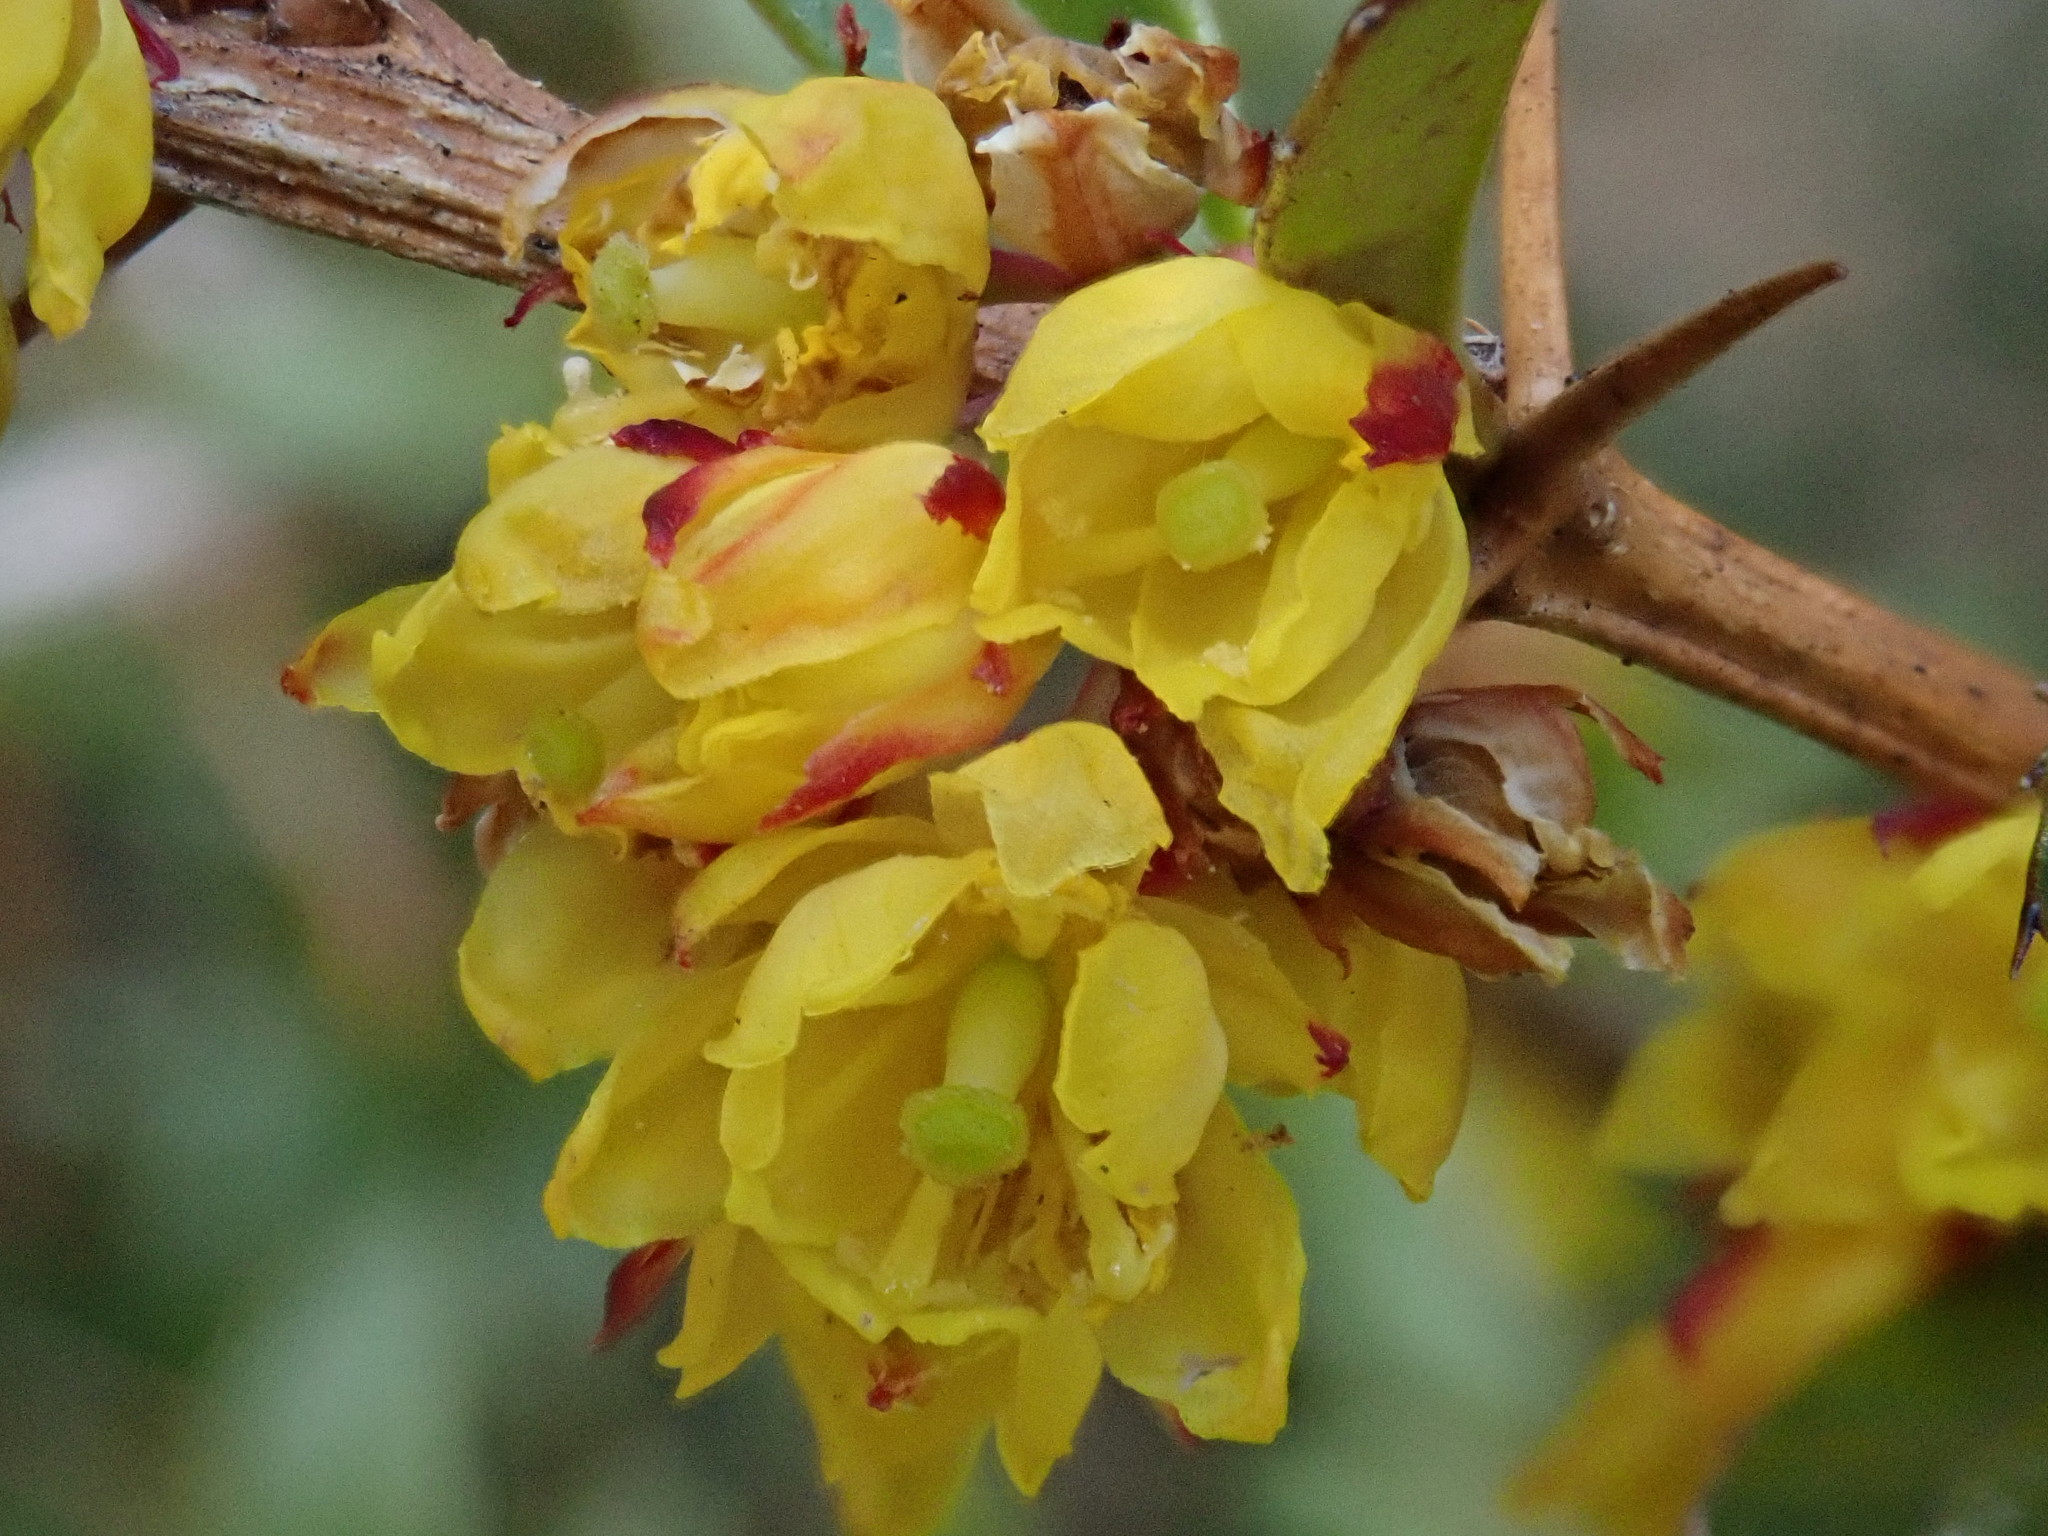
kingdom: Plantae
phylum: Tracheophyta
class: Magnoliopsida
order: Ranunculales
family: Berberidaceae
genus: Berberis
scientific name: Berberis kawakamii
